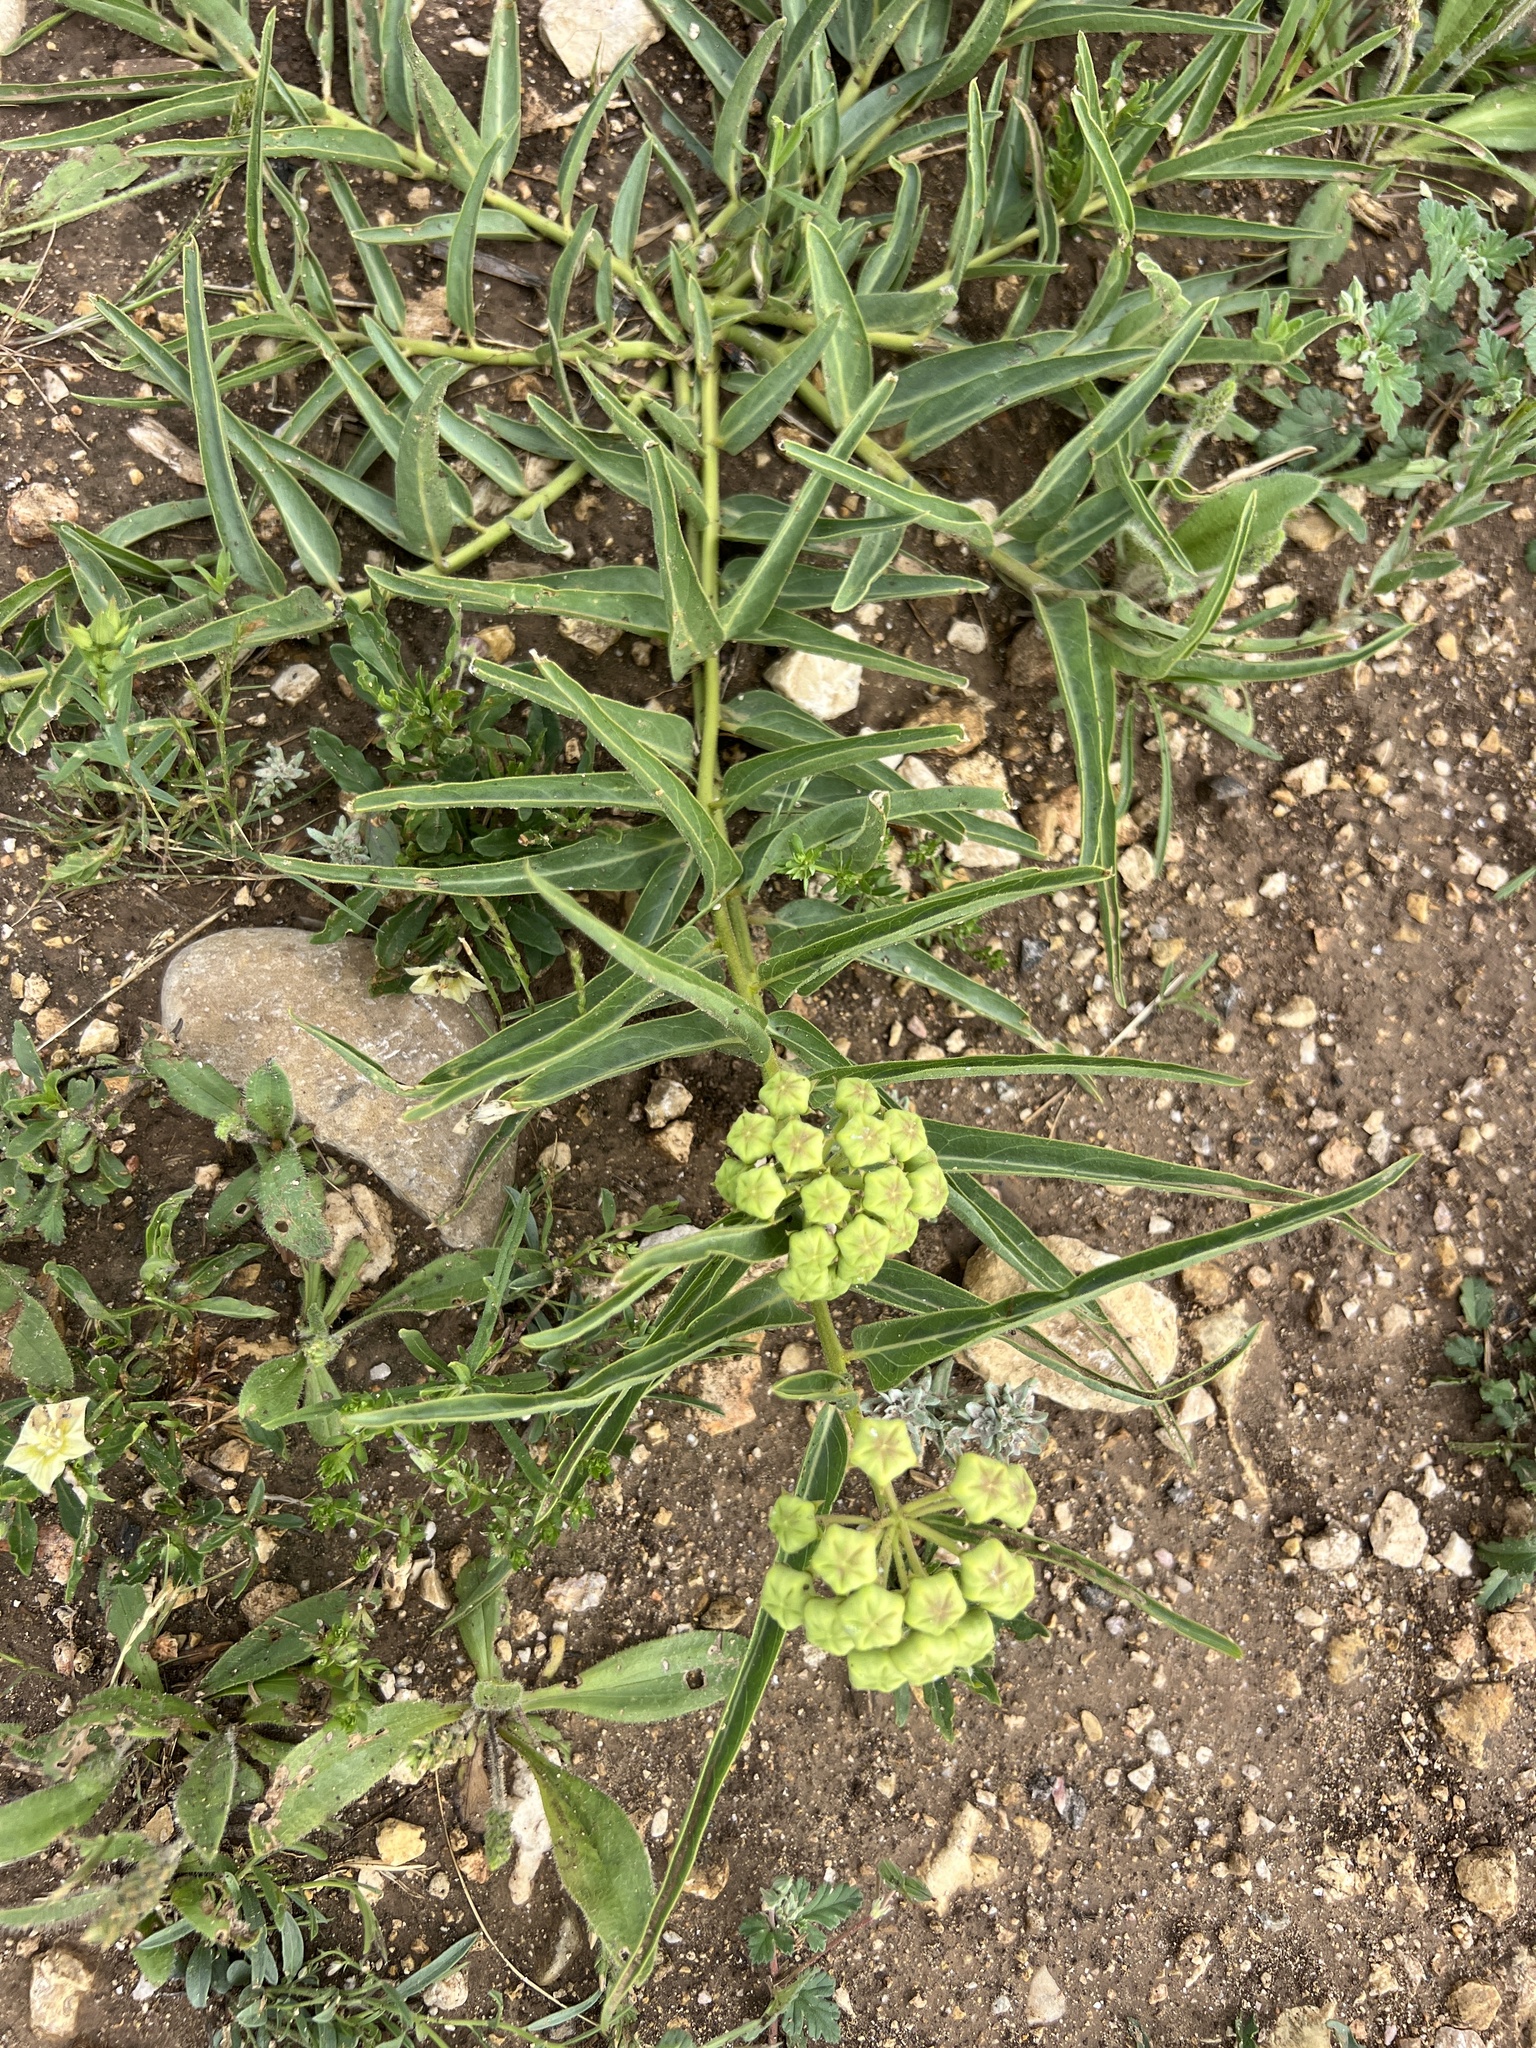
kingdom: Plantae
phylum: Tracheophyta
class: Magnoliopsida
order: Gentianales
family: Apocynaceae
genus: Asclepias
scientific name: Asclepias asperula
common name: Antelope horns
